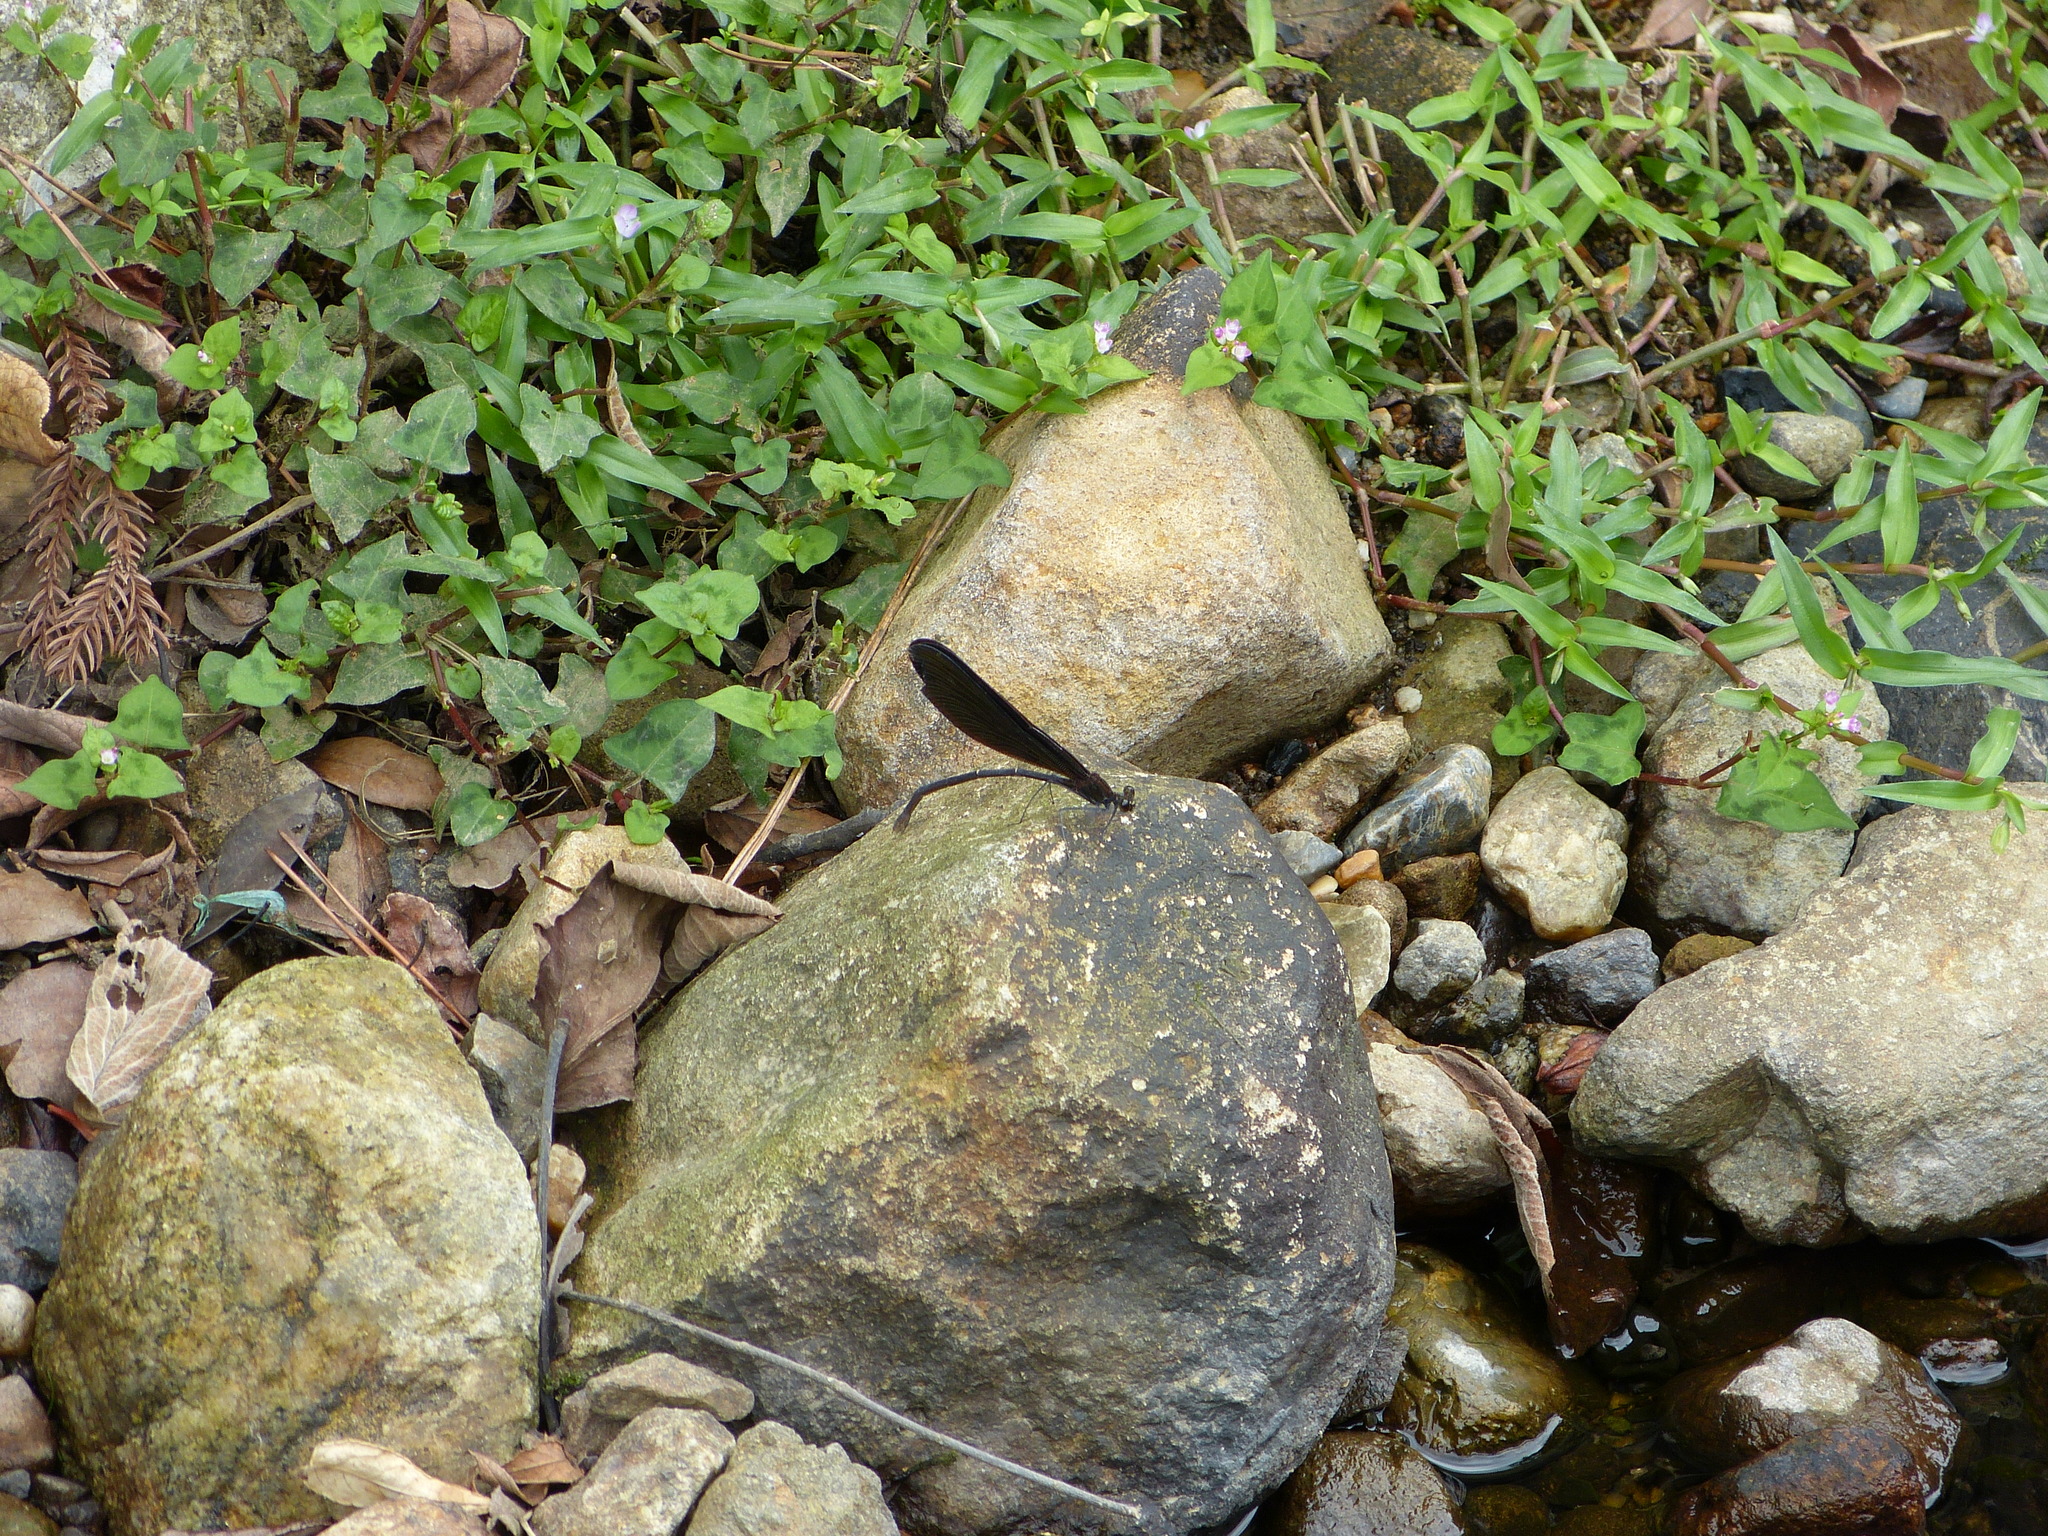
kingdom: Animalia
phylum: Arthropoda
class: Insecta
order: Odonata
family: Calopterygidae
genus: Atrocalopteryx
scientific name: Atrocalopteryx atrata
